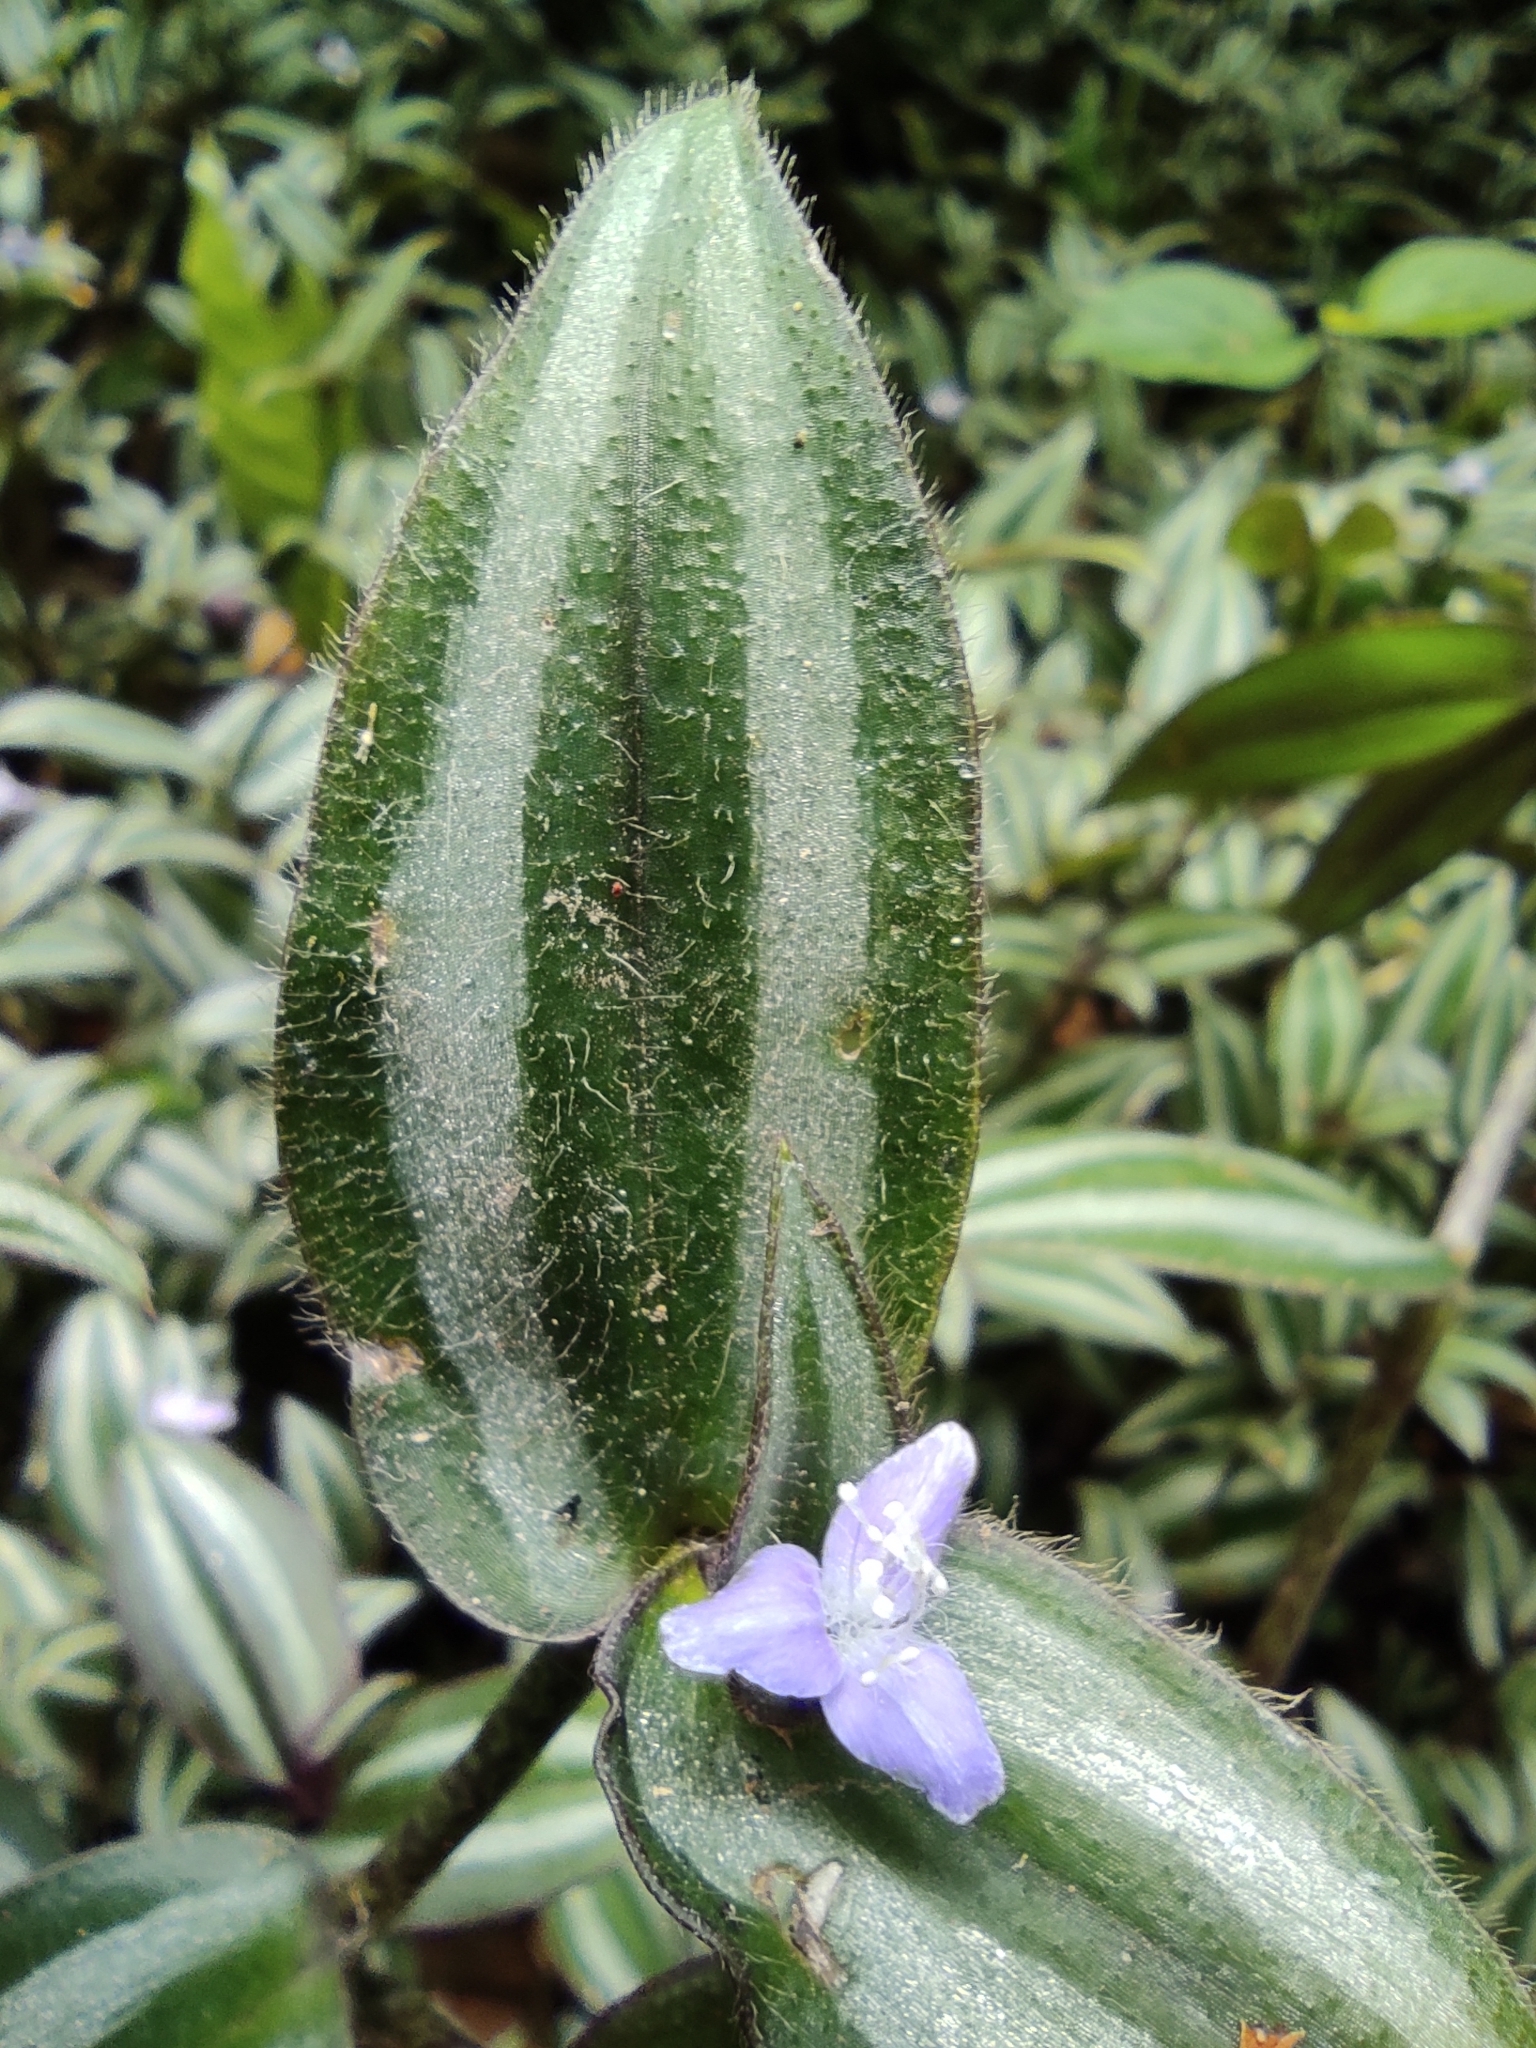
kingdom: Plantae
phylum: Tracheophyta
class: Liliopsida
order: Commelinales
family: Commelinaceae
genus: Tradescantia
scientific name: Tradescantia zebrina
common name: Inchplant
